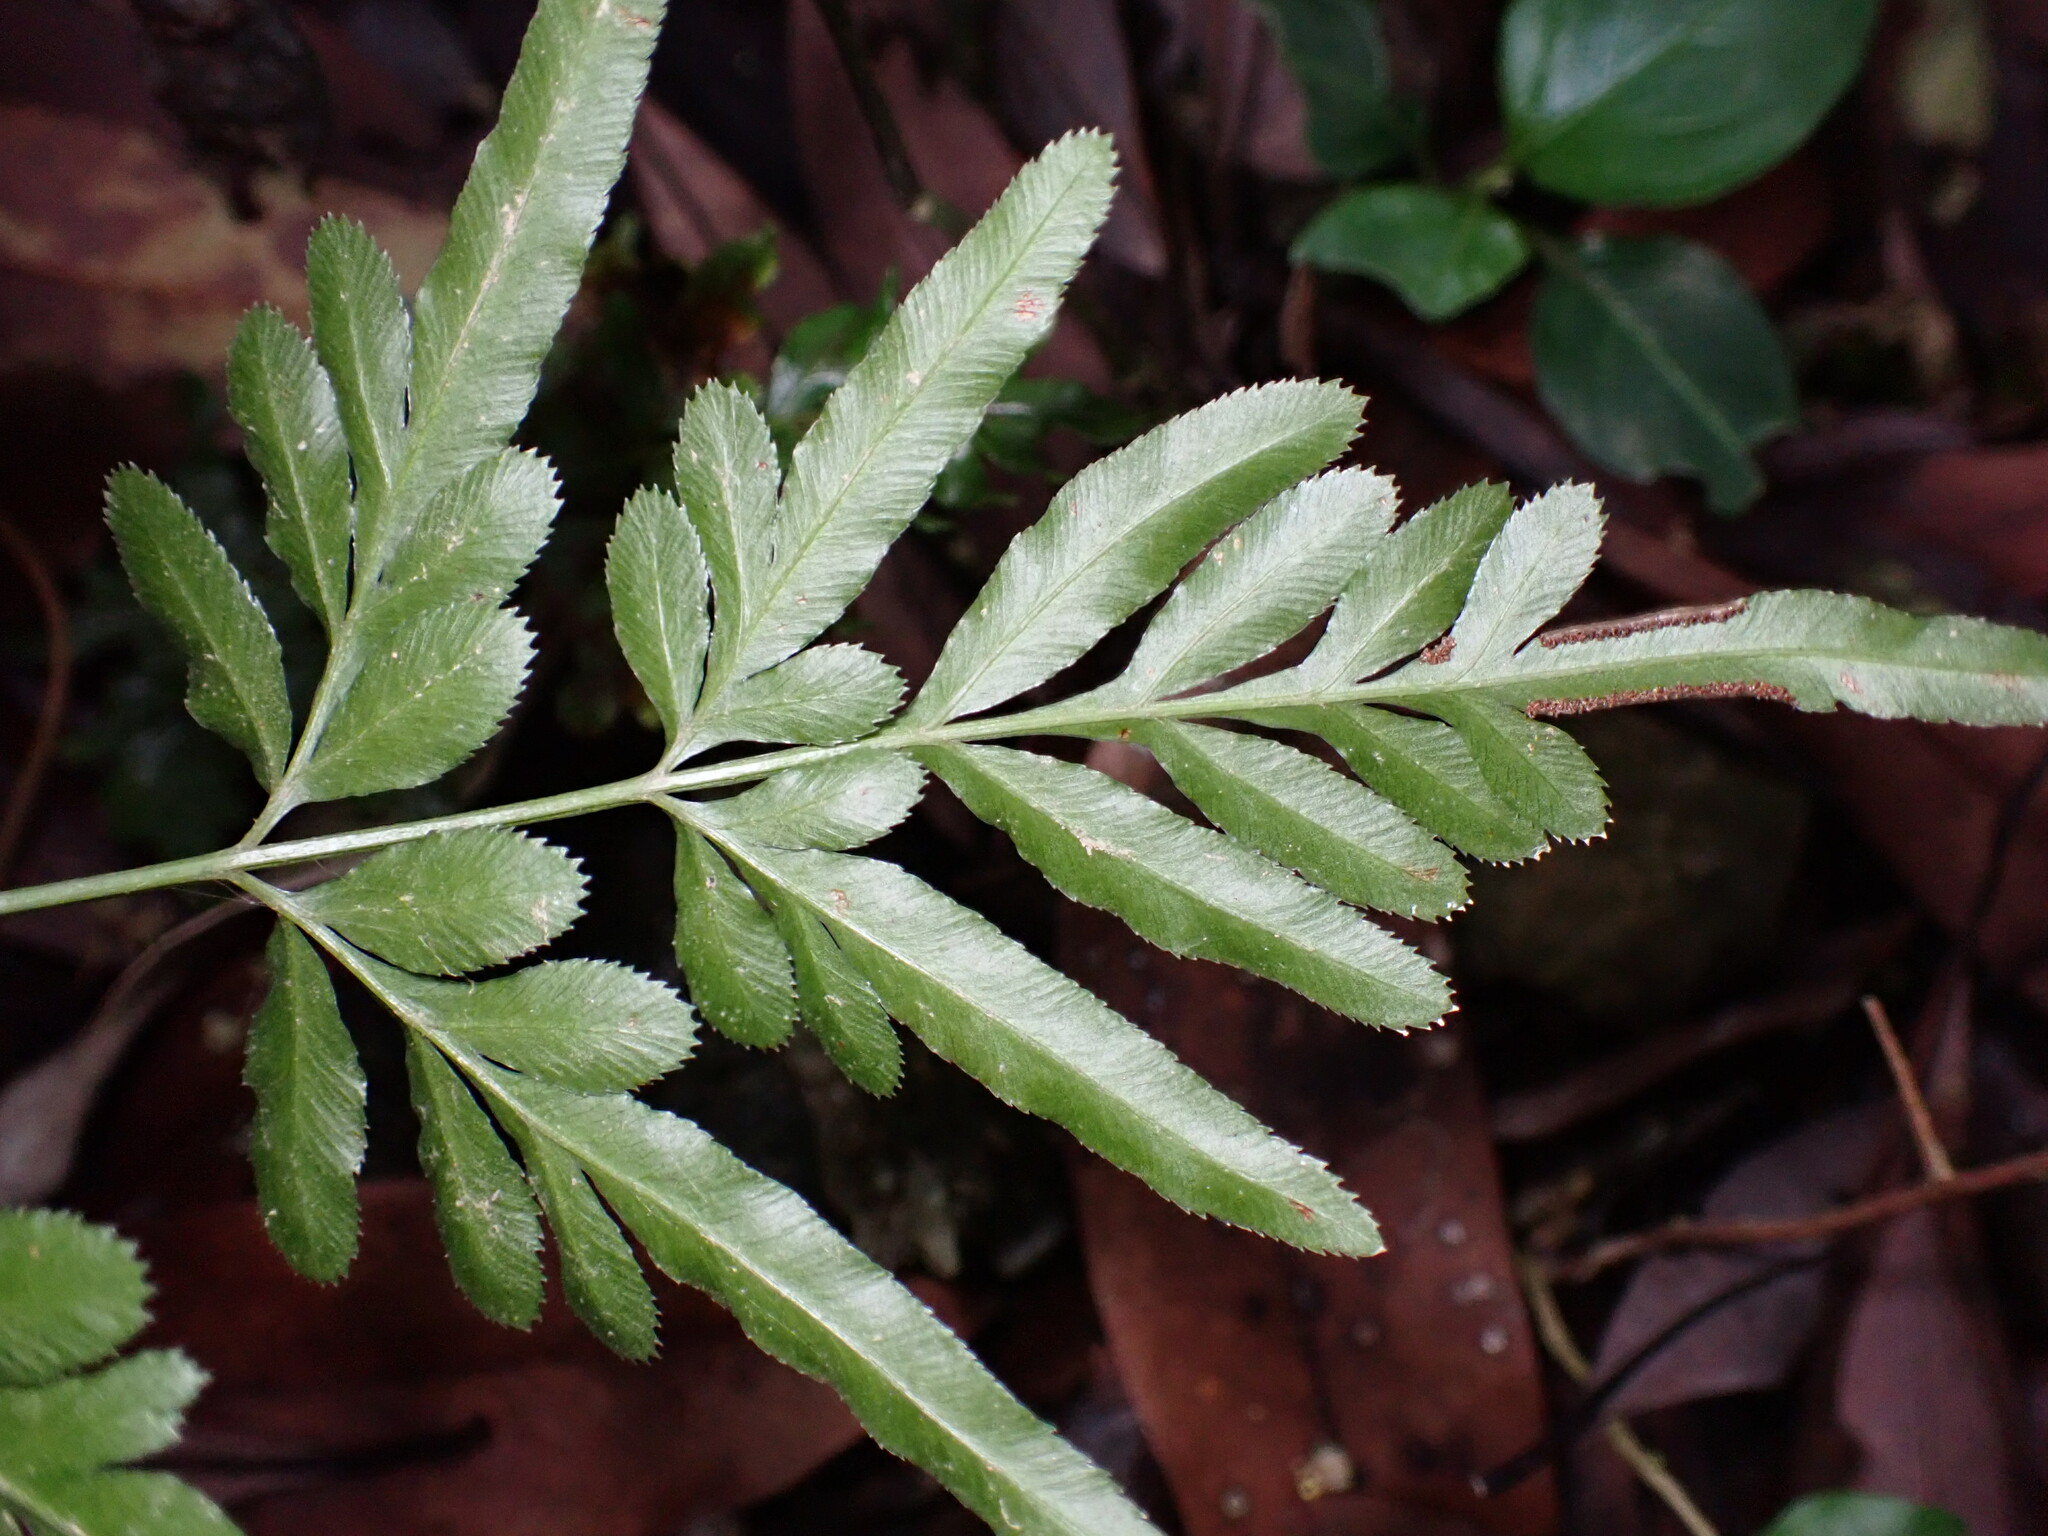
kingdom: Plantae
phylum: Tracheophyta
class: Polypodiopsida
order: Polypodiales
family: Pteridaceae
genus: Pteris
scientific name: Pteris ensiformis
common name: Sword brake
